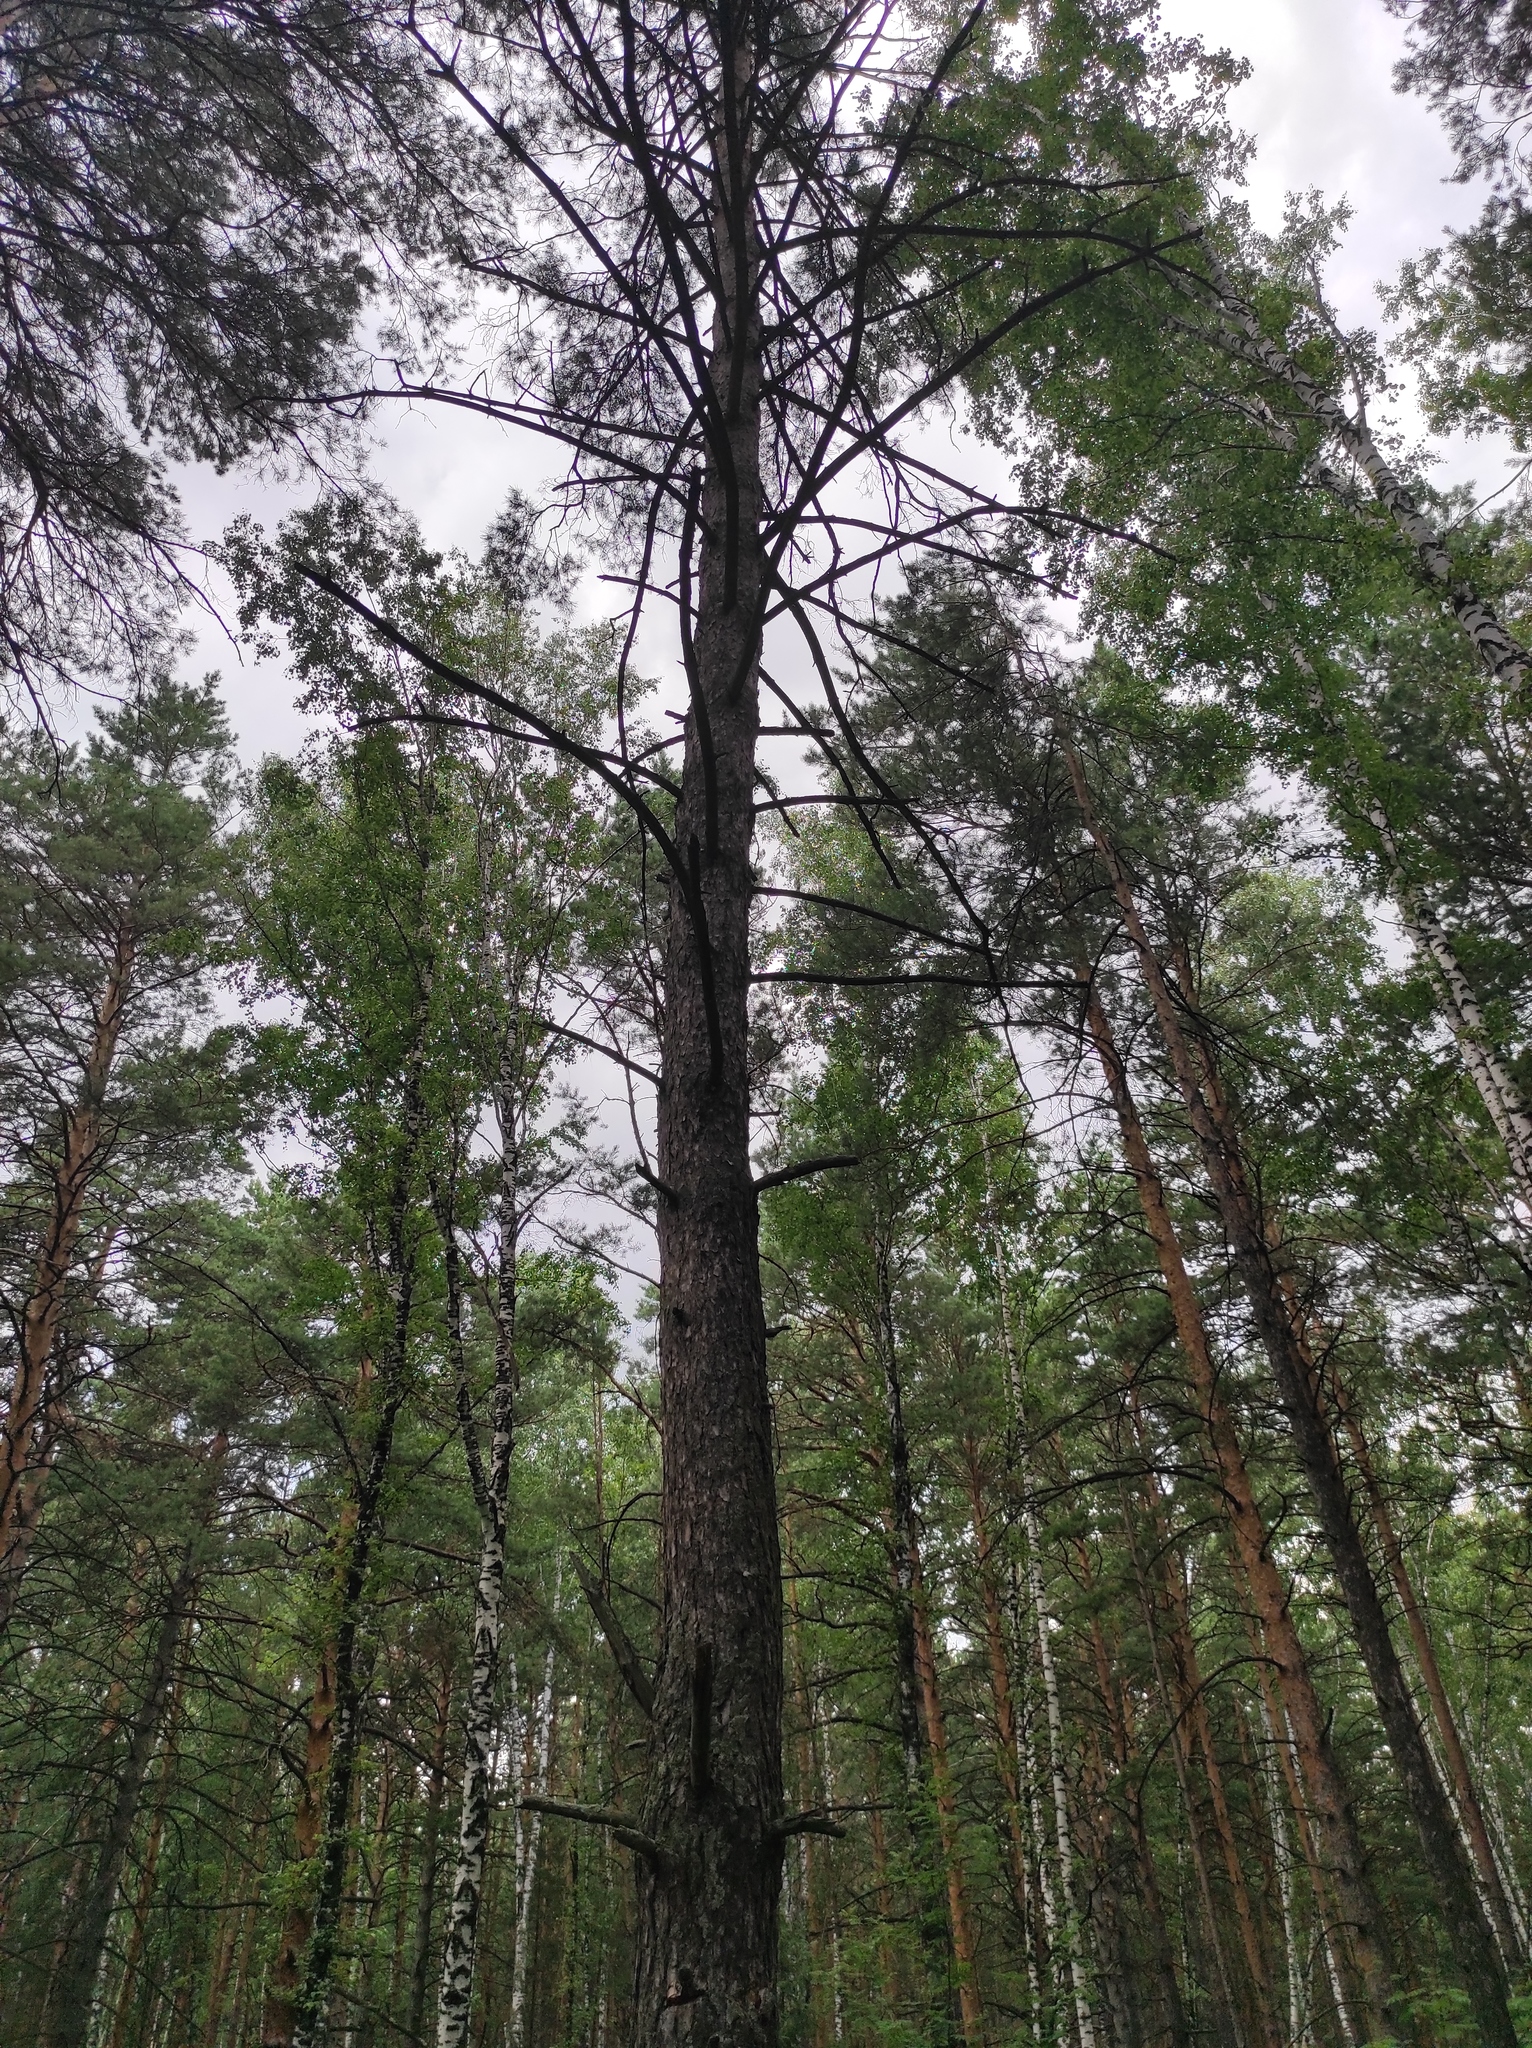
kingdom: Plantae
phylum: Tracheophyta
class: Pinopsida
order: Pinales
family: Pinaceae
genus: Pinus
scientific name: Pinus sylvestris
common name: Scots pine
